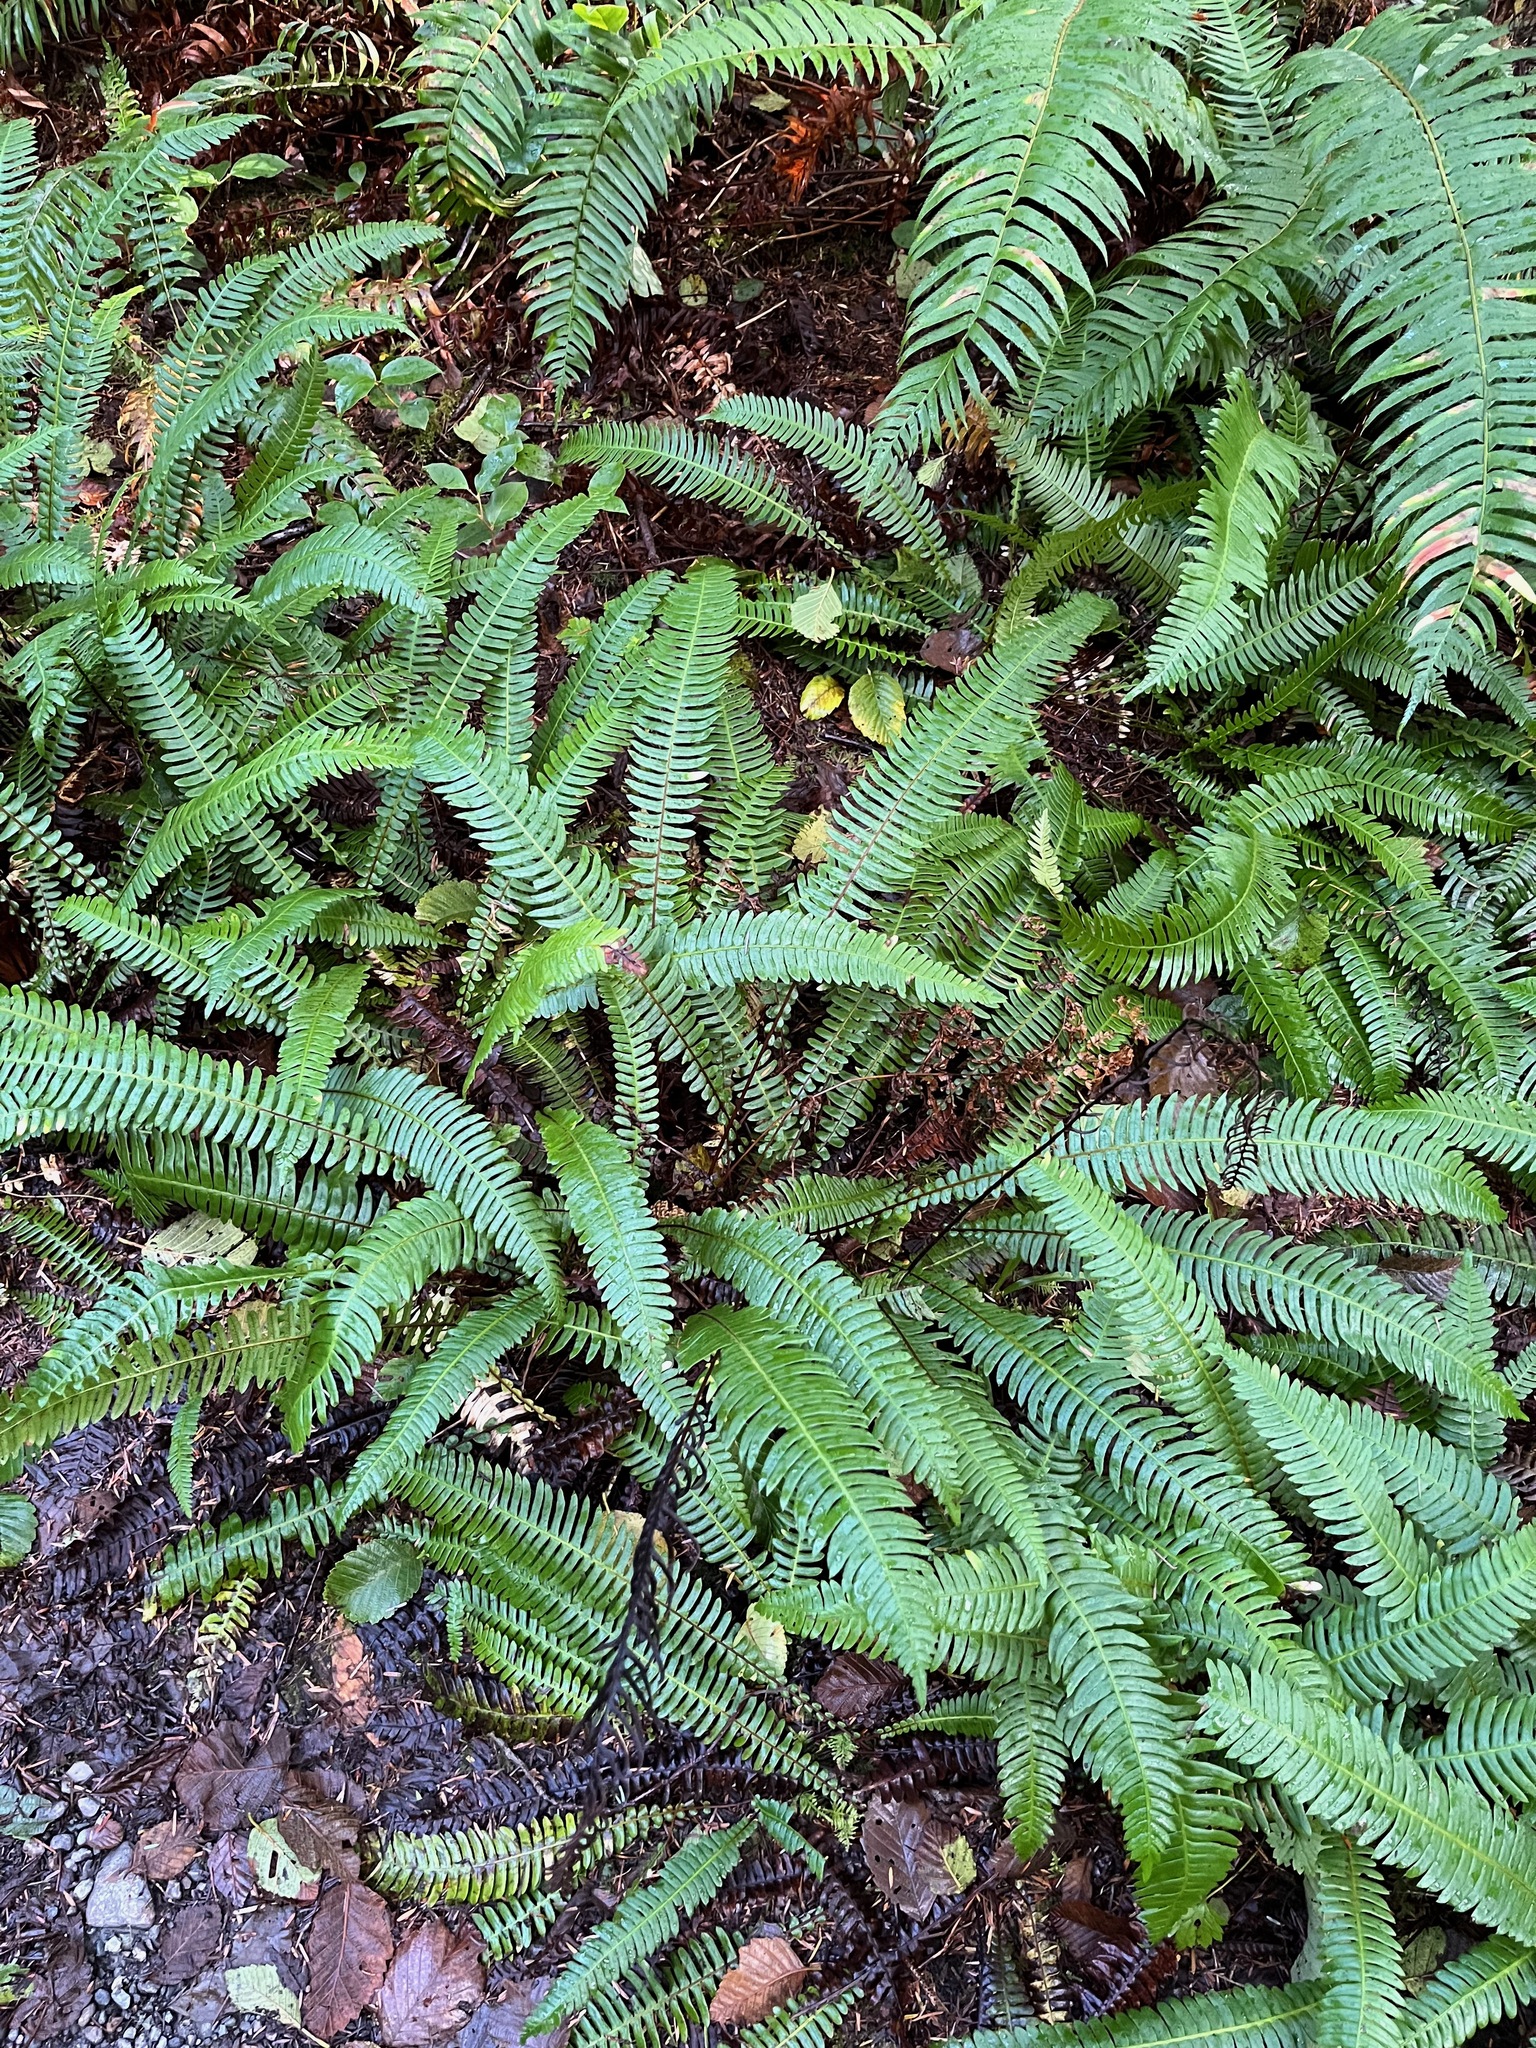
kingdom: Plantae
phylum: Tracheophyta
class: Polypodiopsida
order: Polypodiales
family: Blechnaceae
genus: Struthiopteris
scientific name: Struthiopteris spicant
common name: Deer fern
